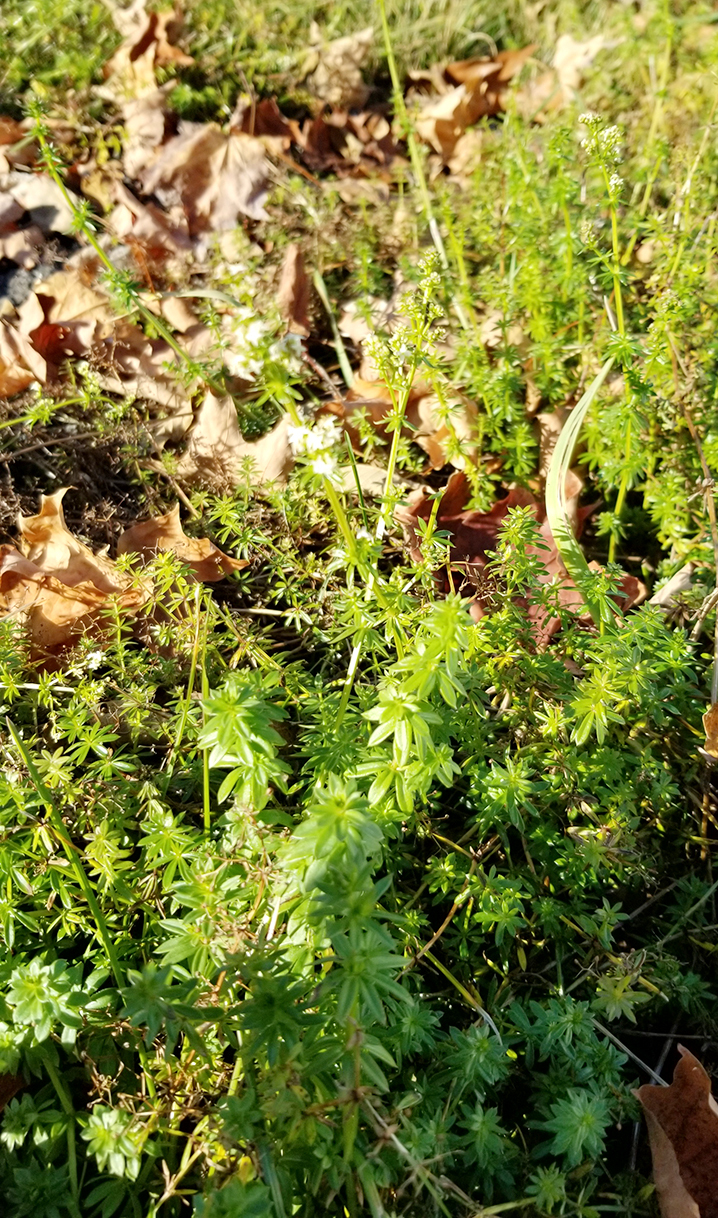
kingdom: Plantae
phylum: Tracheophyta
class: Magnoliopsida
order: Gentianales
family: Rubiaceae
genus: Galium
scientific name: Galium mollugo
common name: Hedge bedstraw
